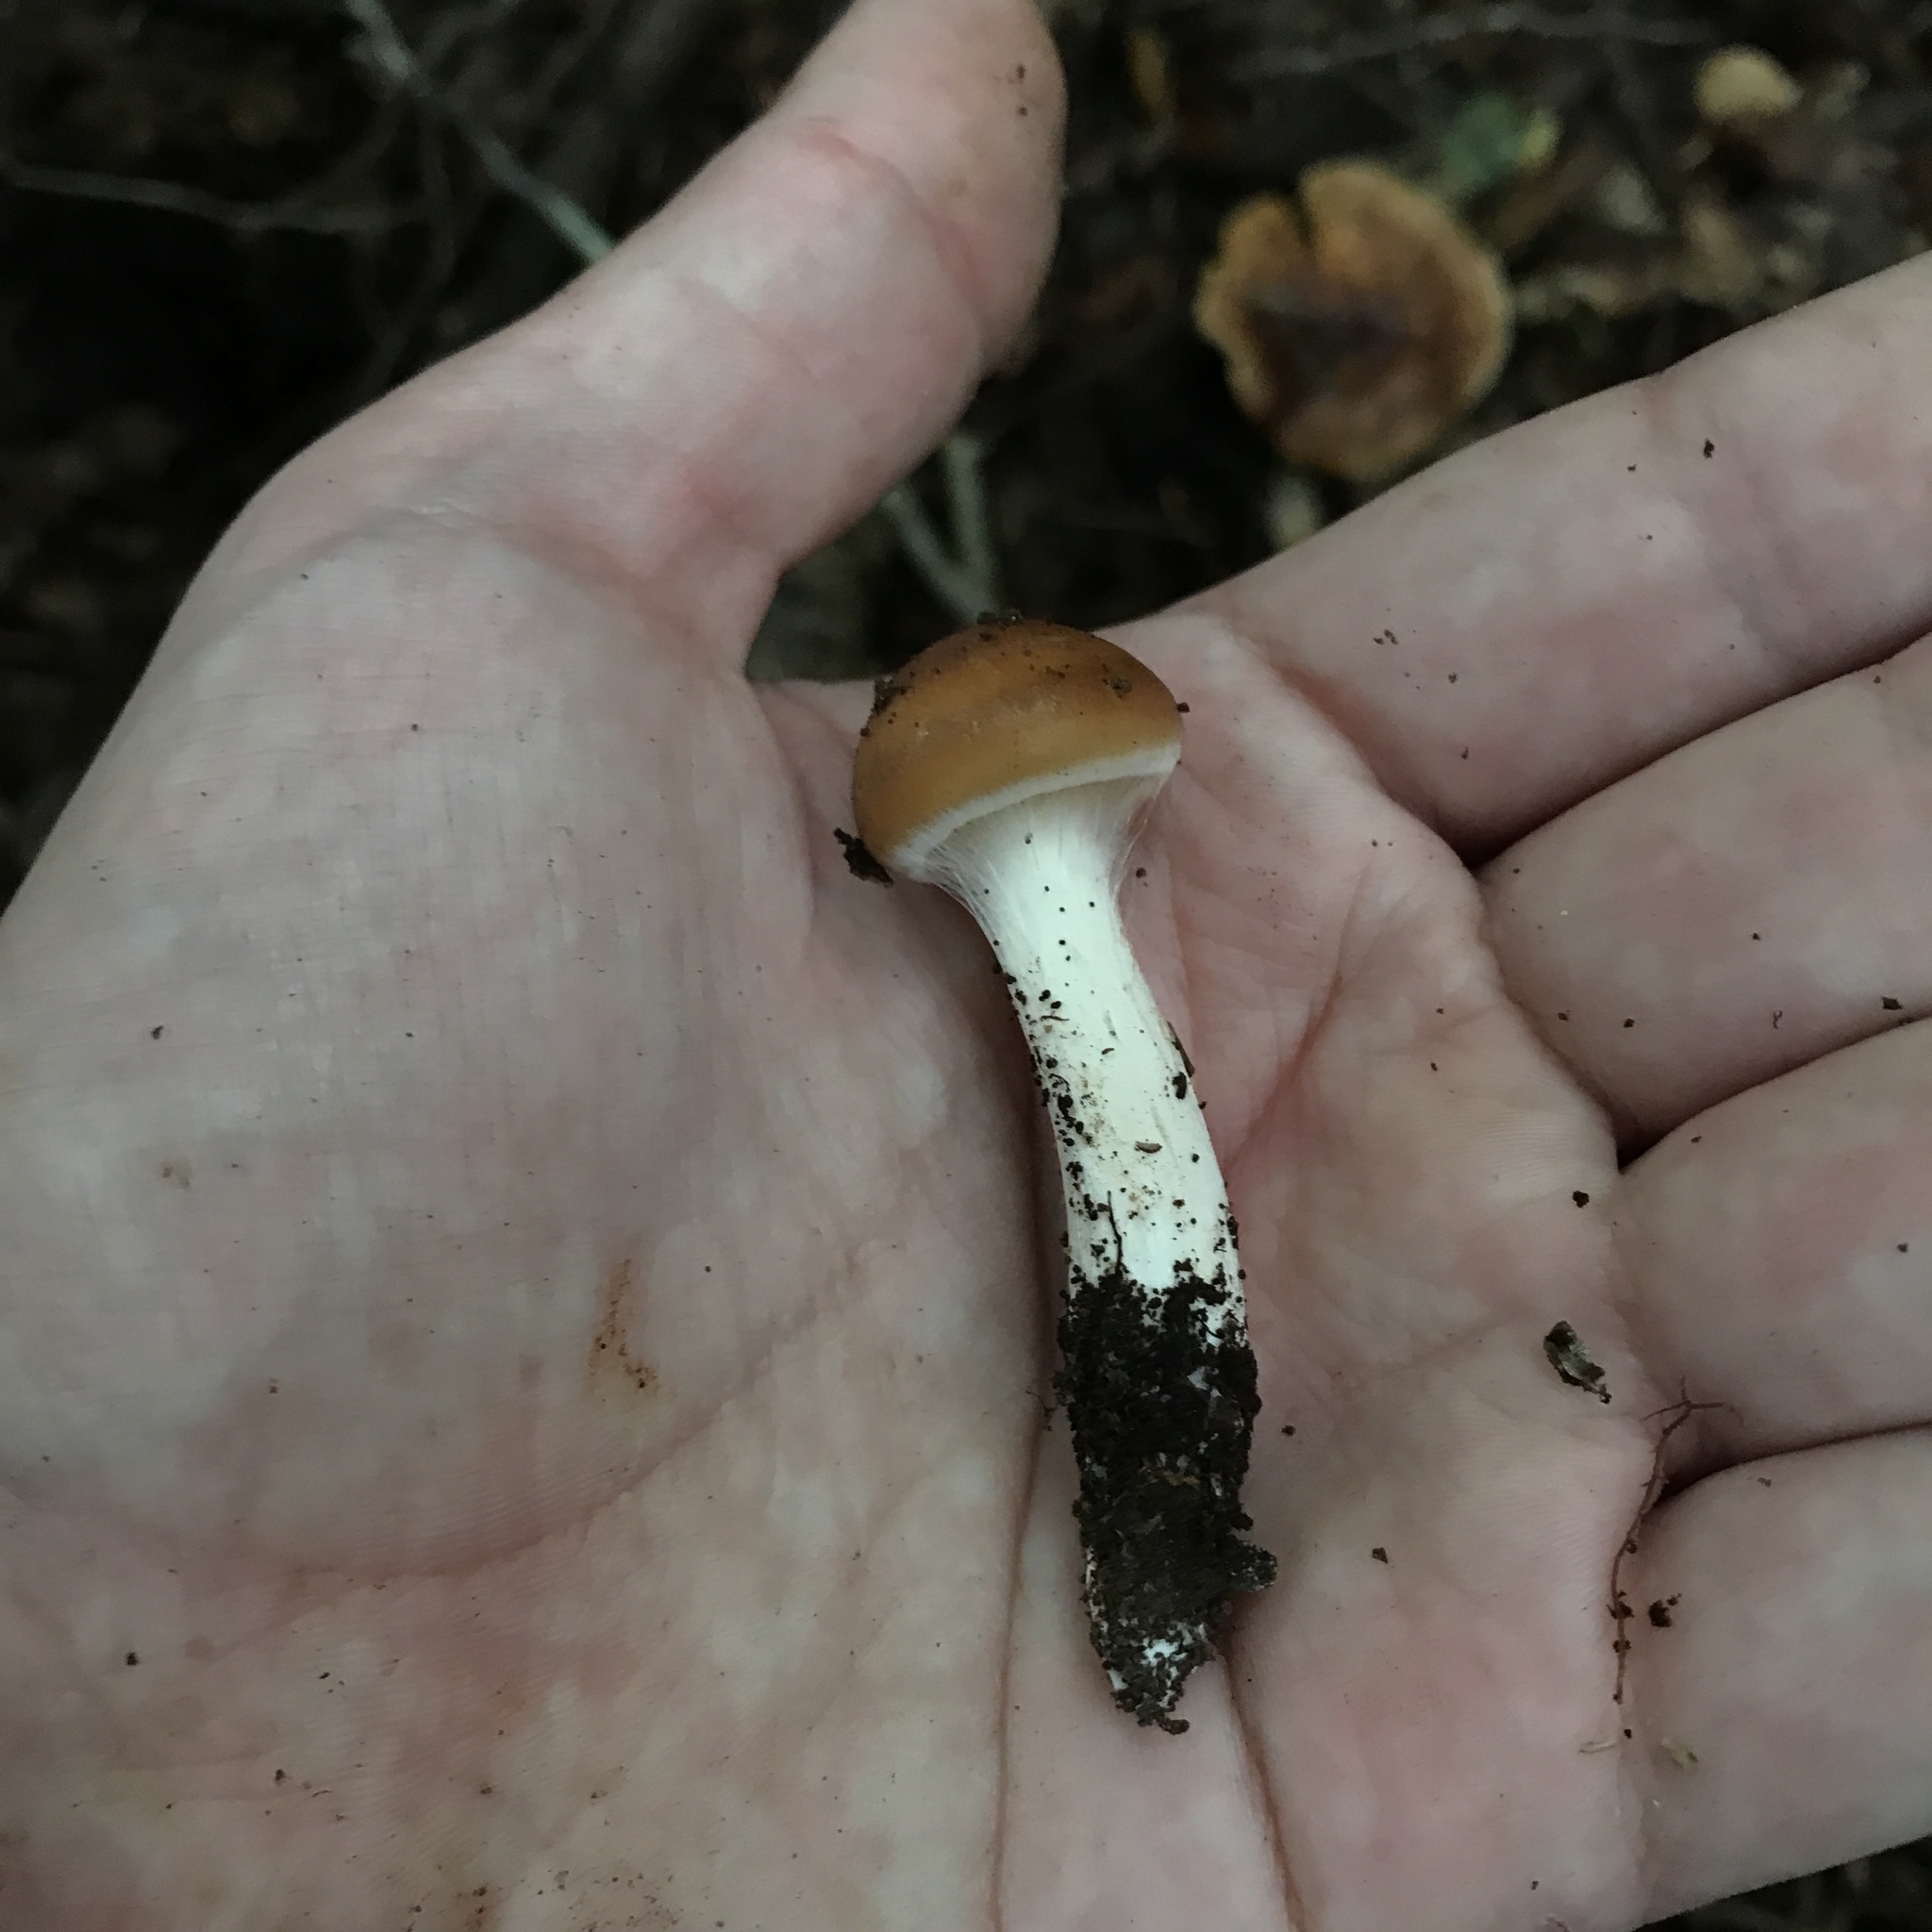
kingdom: Fungi
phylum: Basidiomycota
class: Agaricomycetes
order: Agaricales
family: Cortinariaceae
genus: Hygronarius
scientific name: Hygronarius austroduracinus
